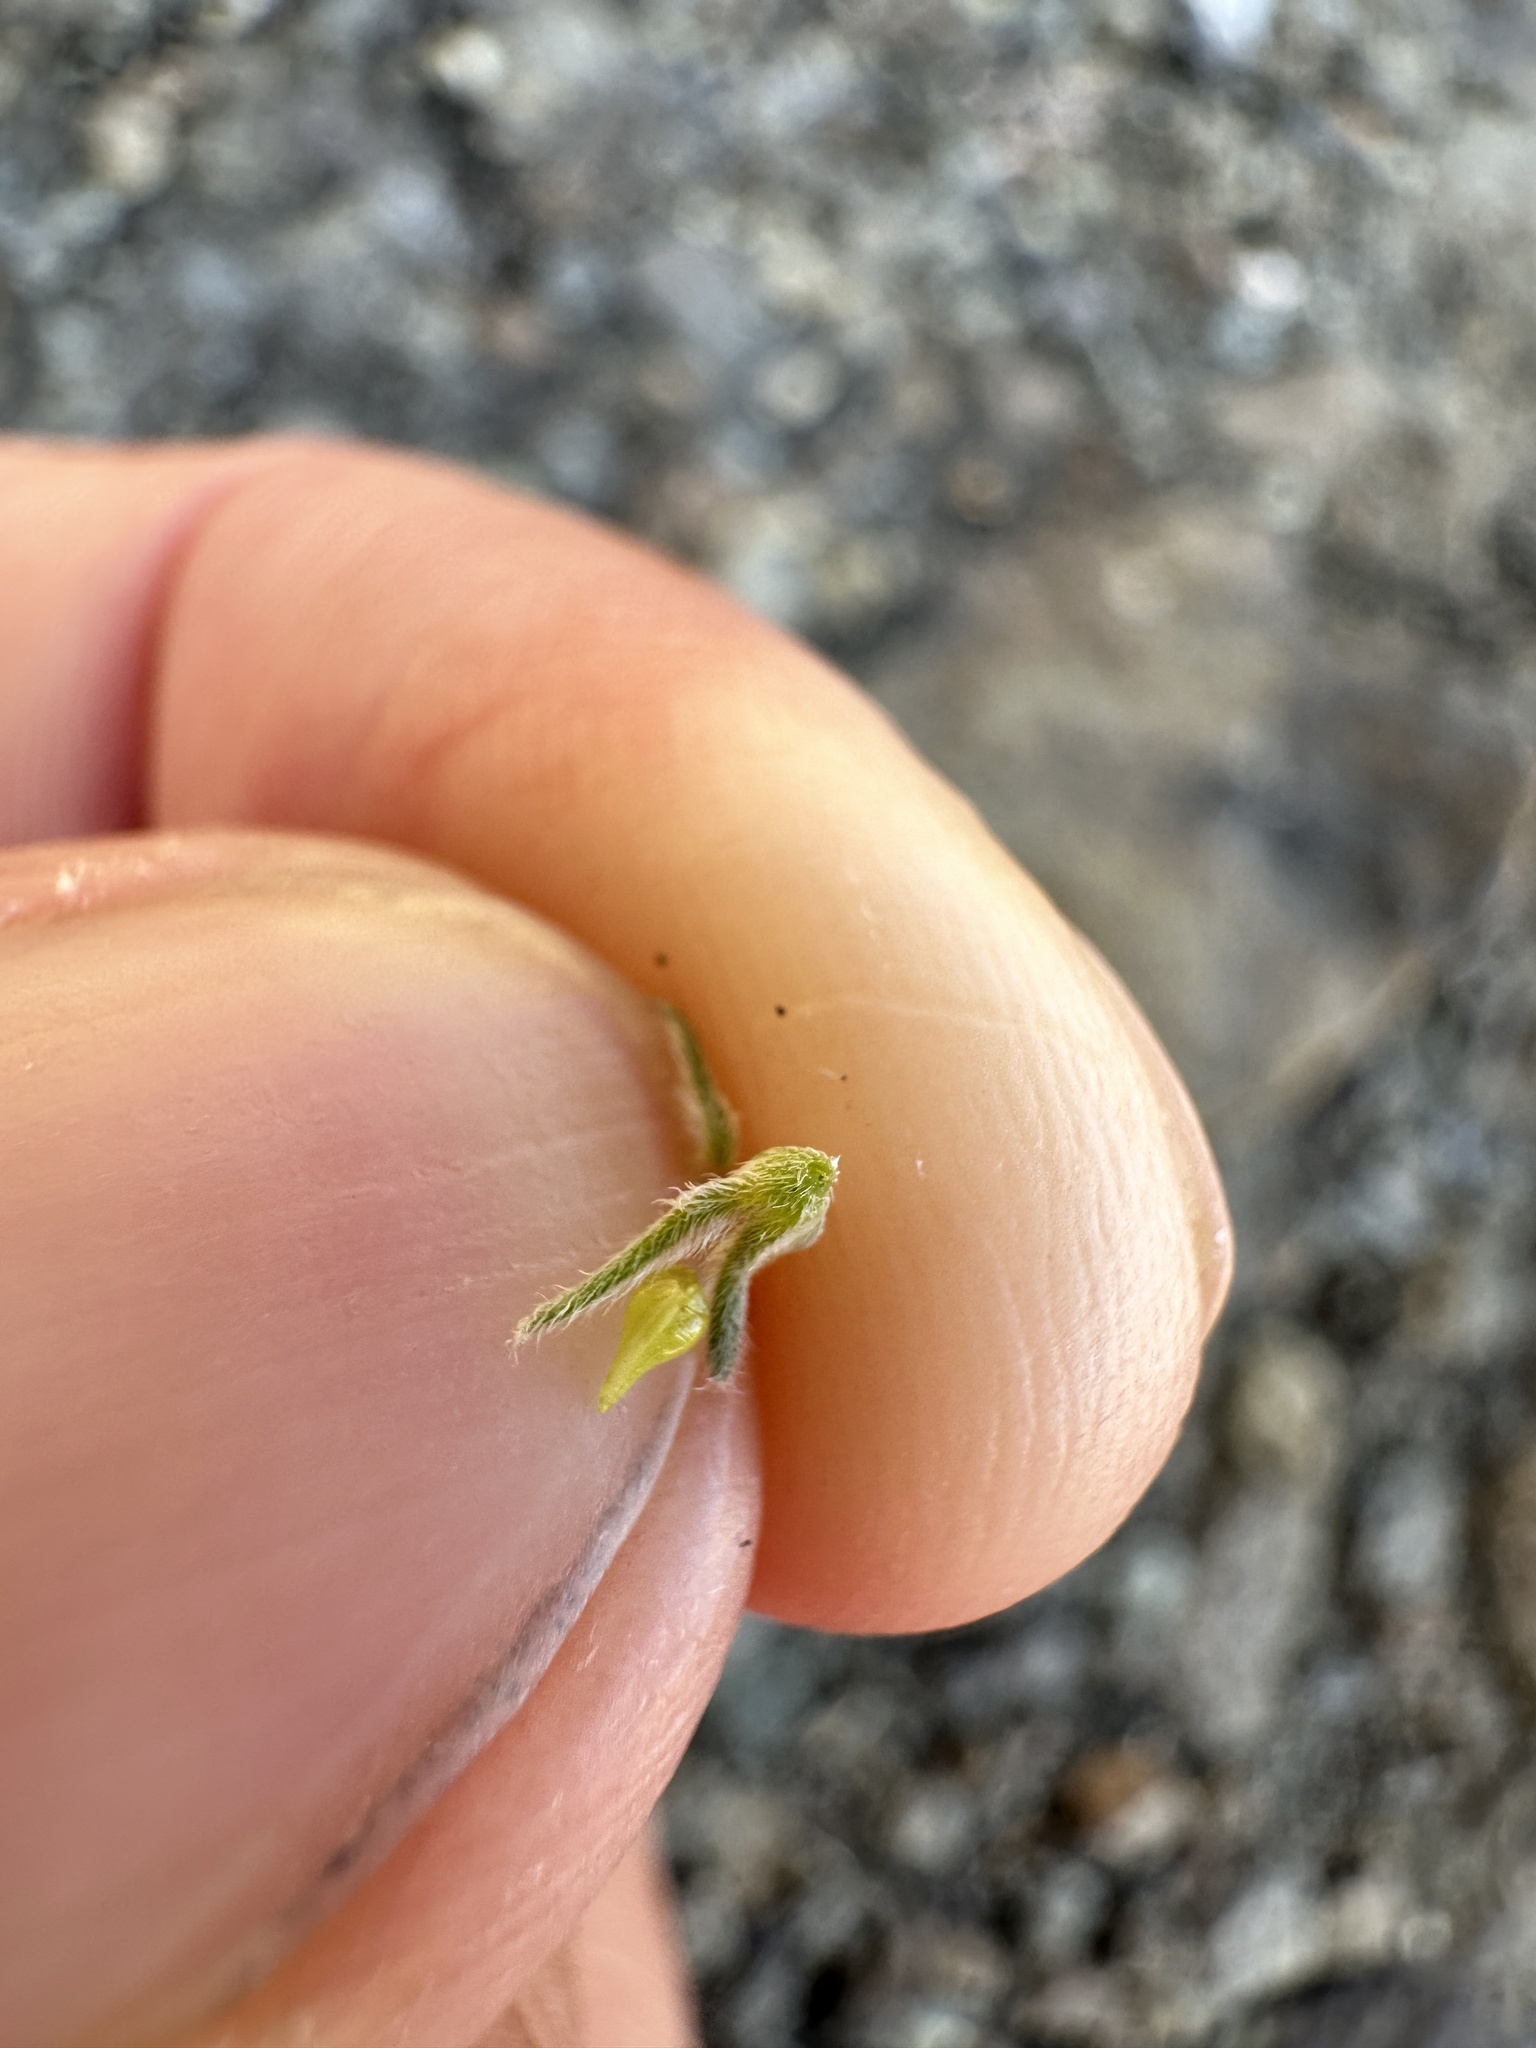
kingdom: Plantae
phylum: Tracheophyta
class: Magnoliopsida
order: Boraginales
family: Boraginaceae
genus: Cryptantha
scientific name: Cryptantha flaccida
